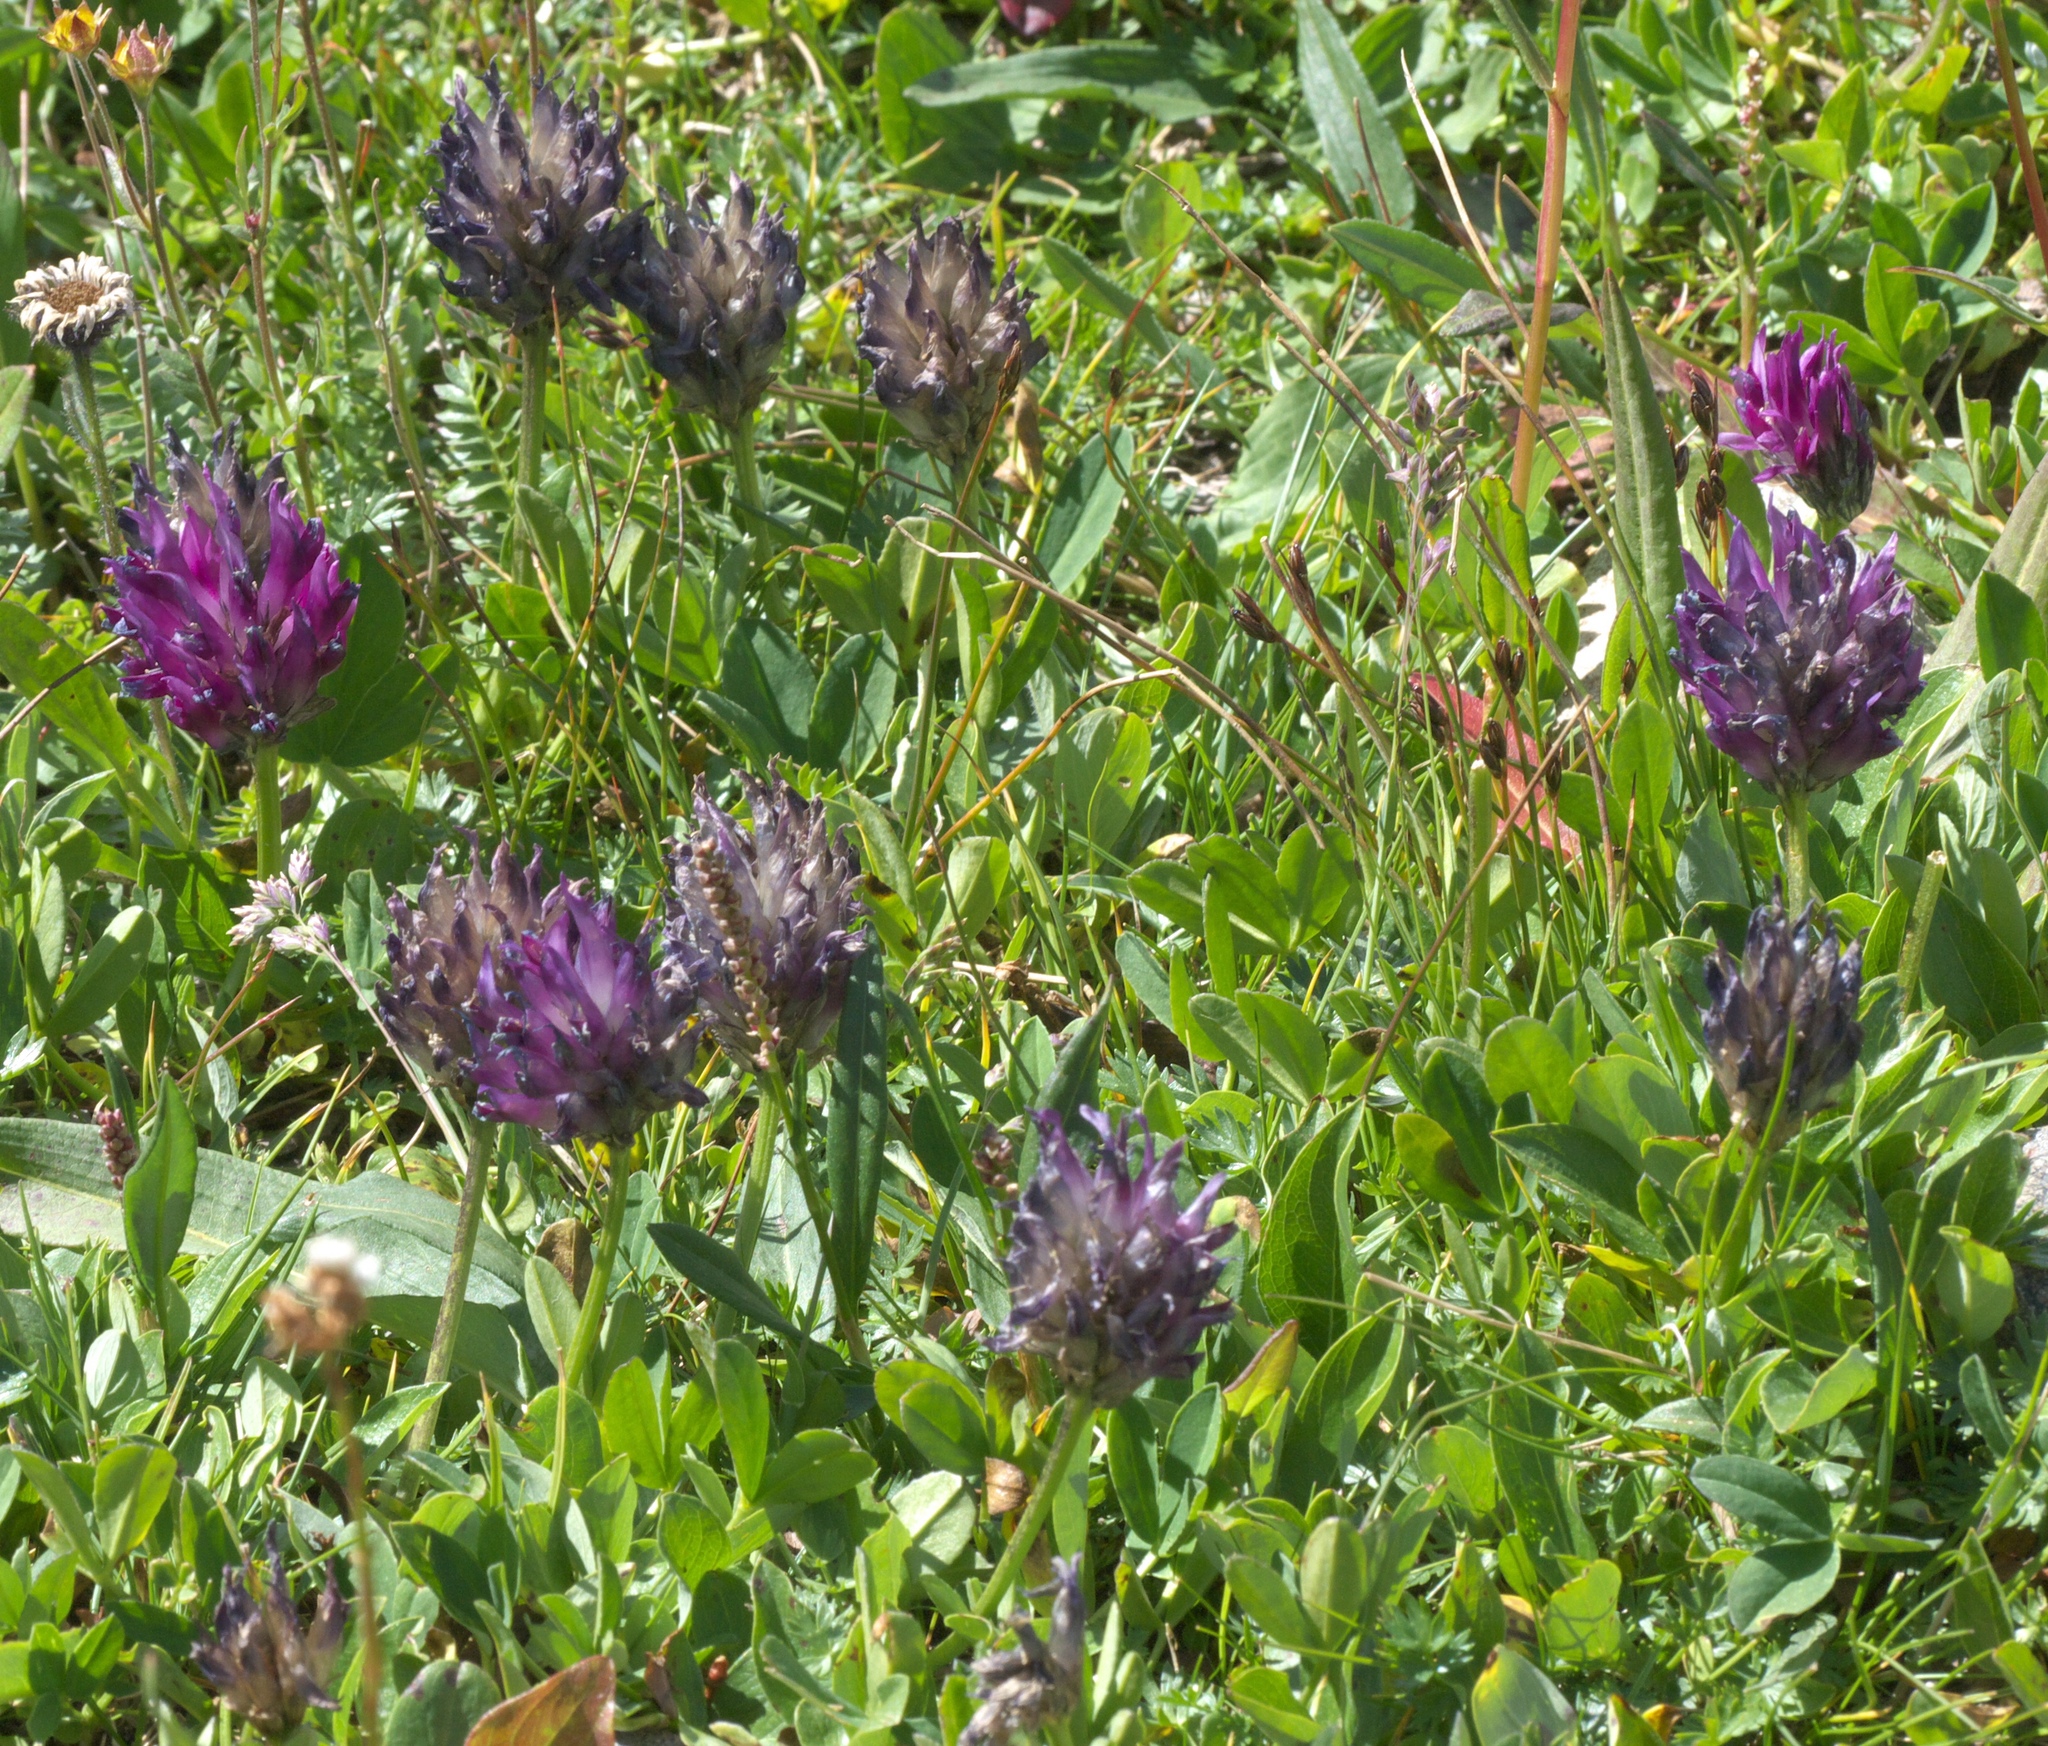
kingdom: Plantae
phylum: Tracheophyta
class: Magnoliopsida
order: Fabales
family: Fabaceae
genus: Trifolium
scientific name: Trifolium parryi
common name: Parry's clover
